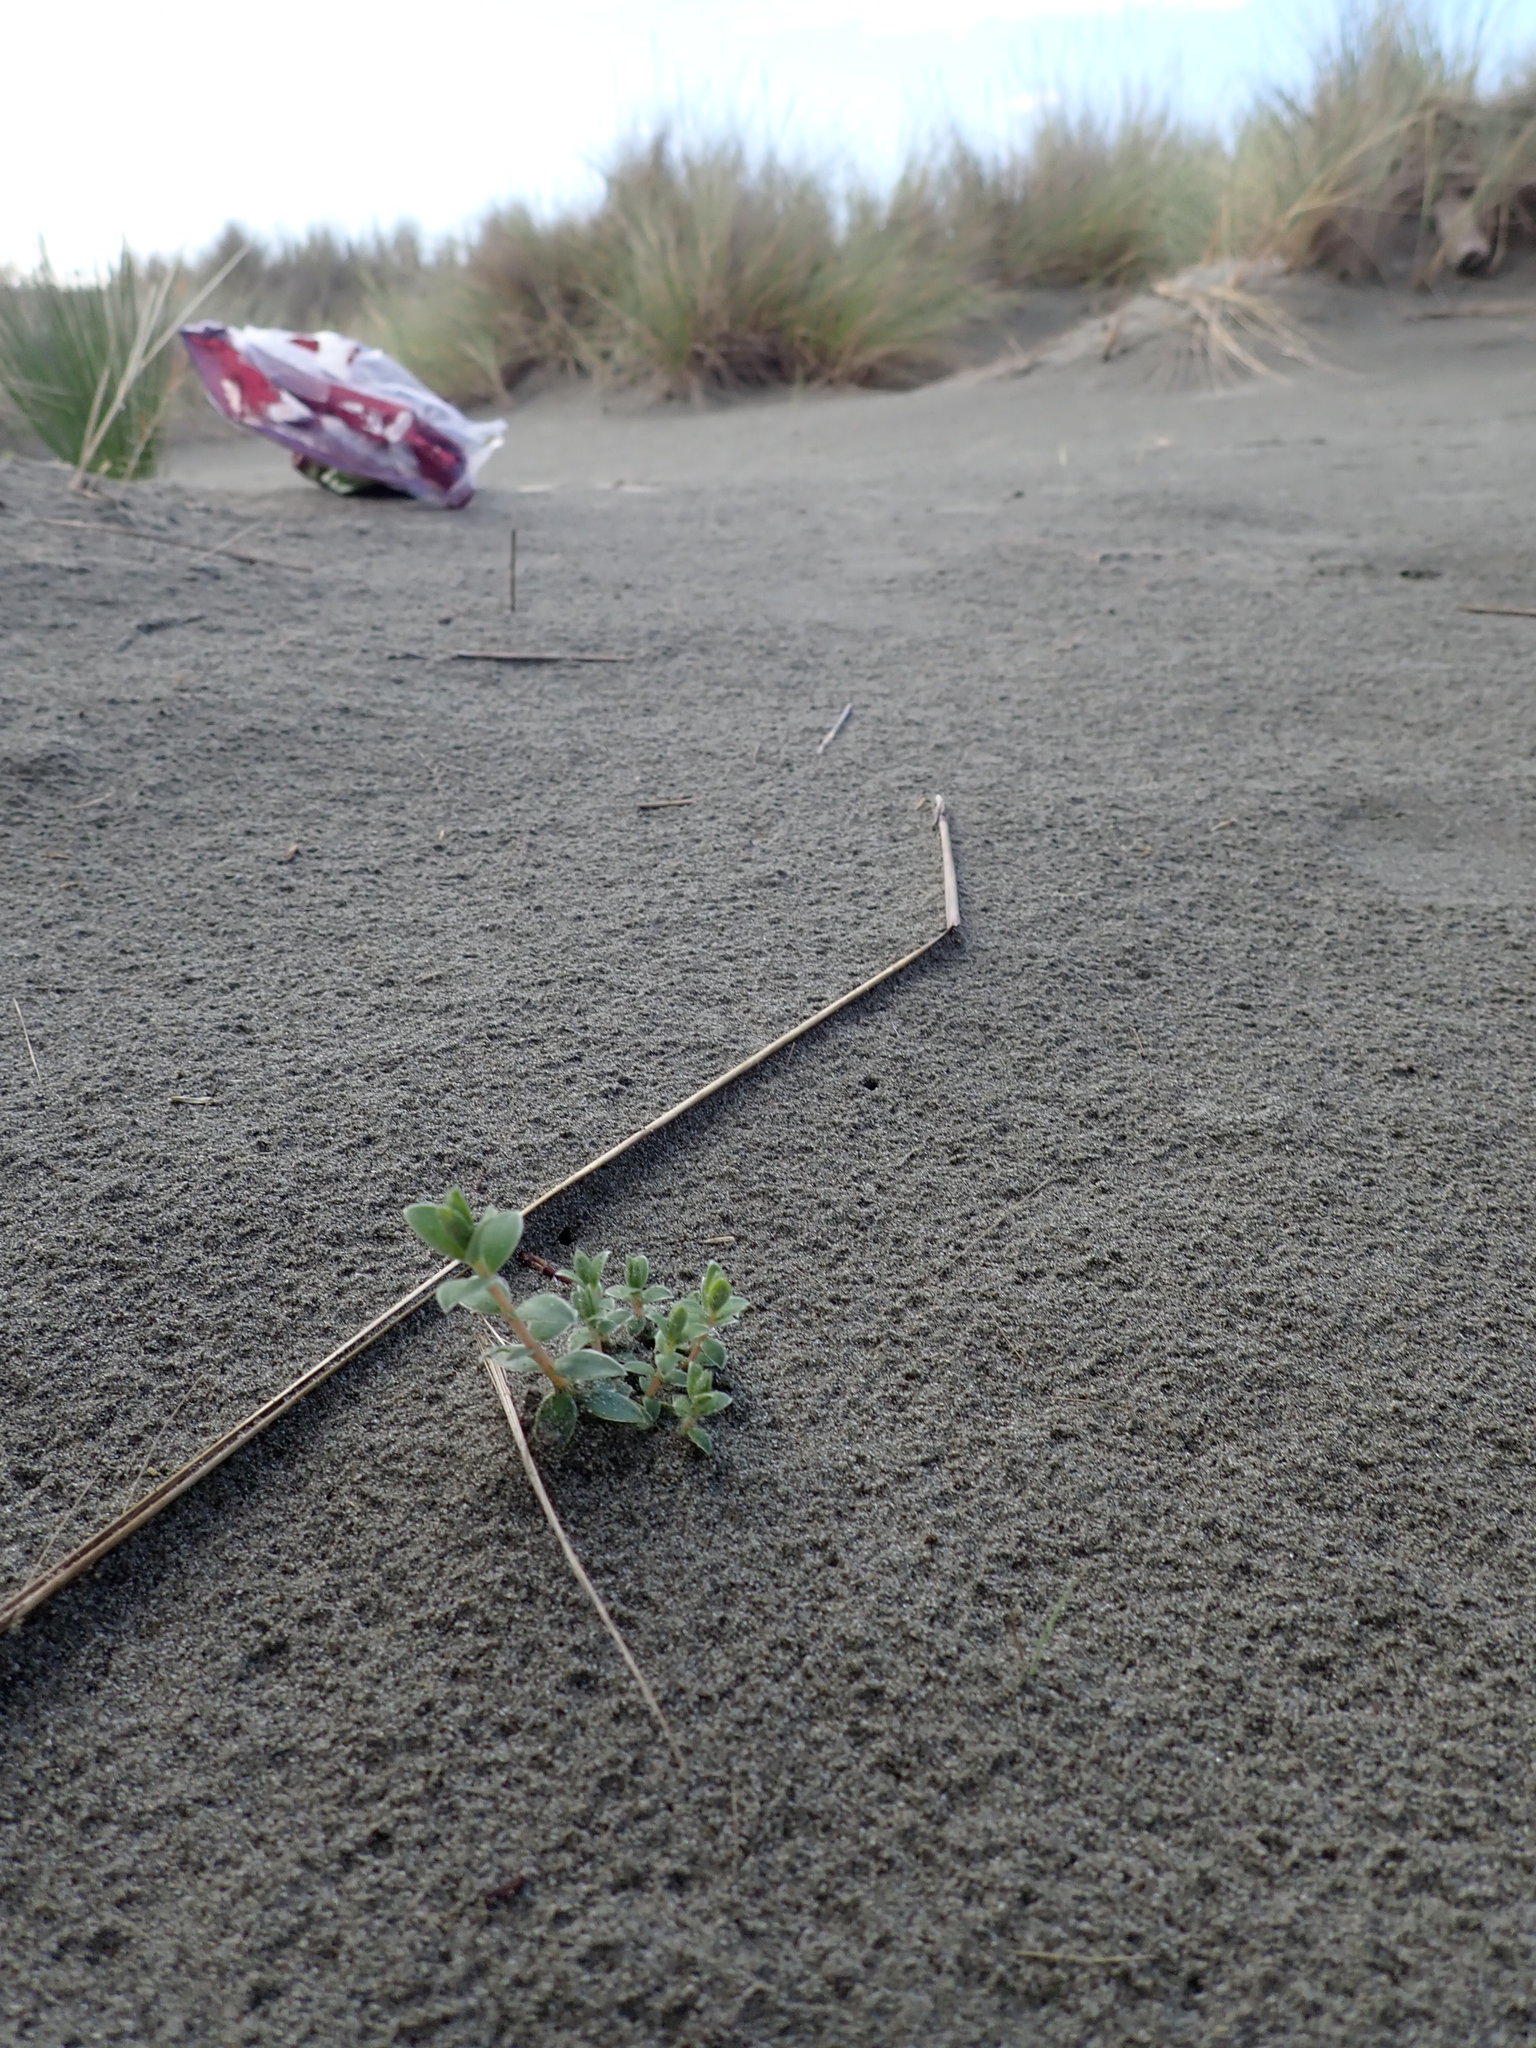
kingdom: Plantae
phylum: Tracheophyta
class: Magnoliopsida
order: Malvales
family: Thymelaeaceae
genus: Pimelea
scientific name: Pimelea villosa
